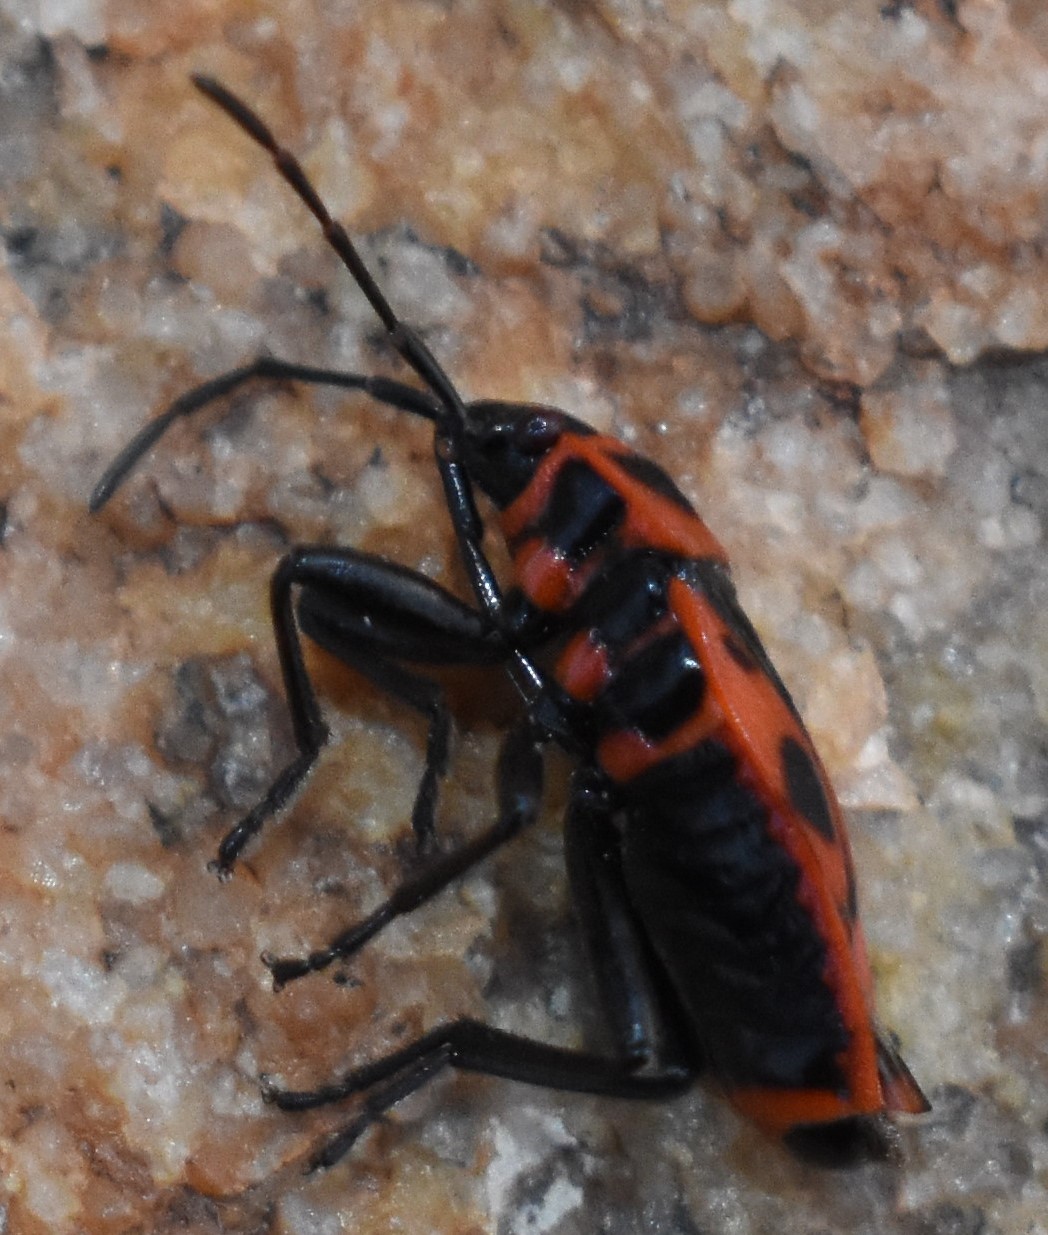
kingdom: Animalia
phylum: Arthropoda
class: Insecta
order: Hemiptera
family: Pyrrhocoridae
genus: Pyrrhocoris
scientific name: Pyrrhocoris apterus
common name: Firebug
